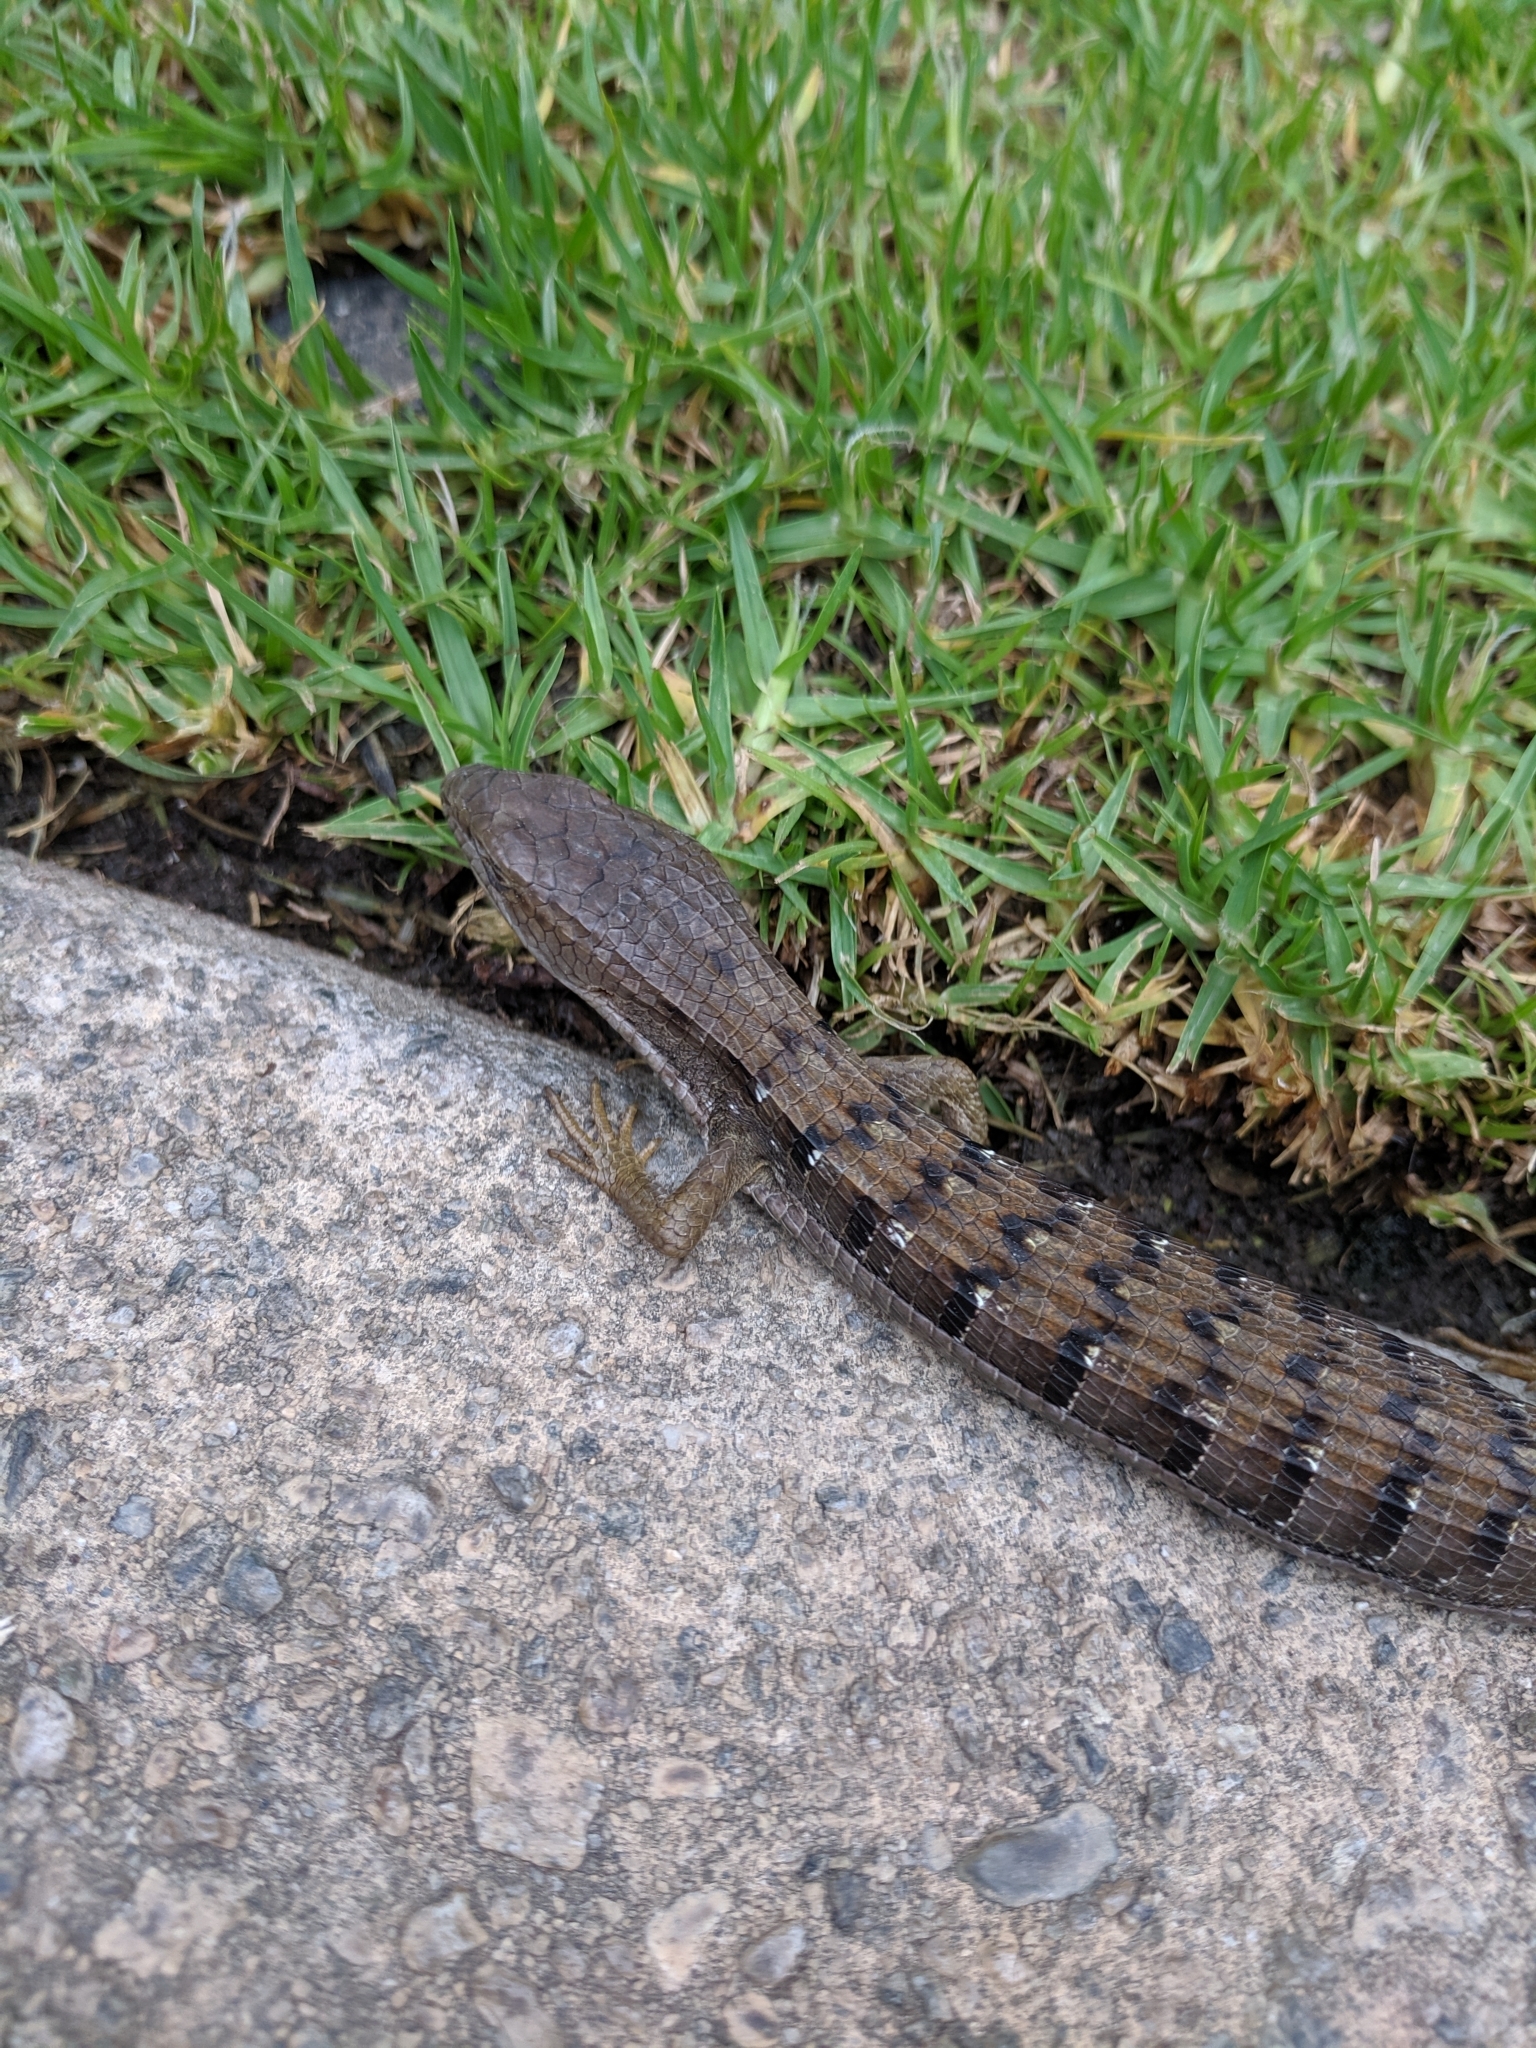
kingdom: Animalia
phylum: Chordata
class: Squamata
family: Anguidae
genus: Elgaria
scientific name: Elgaria multicarinata
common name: Southern alligator lizard
